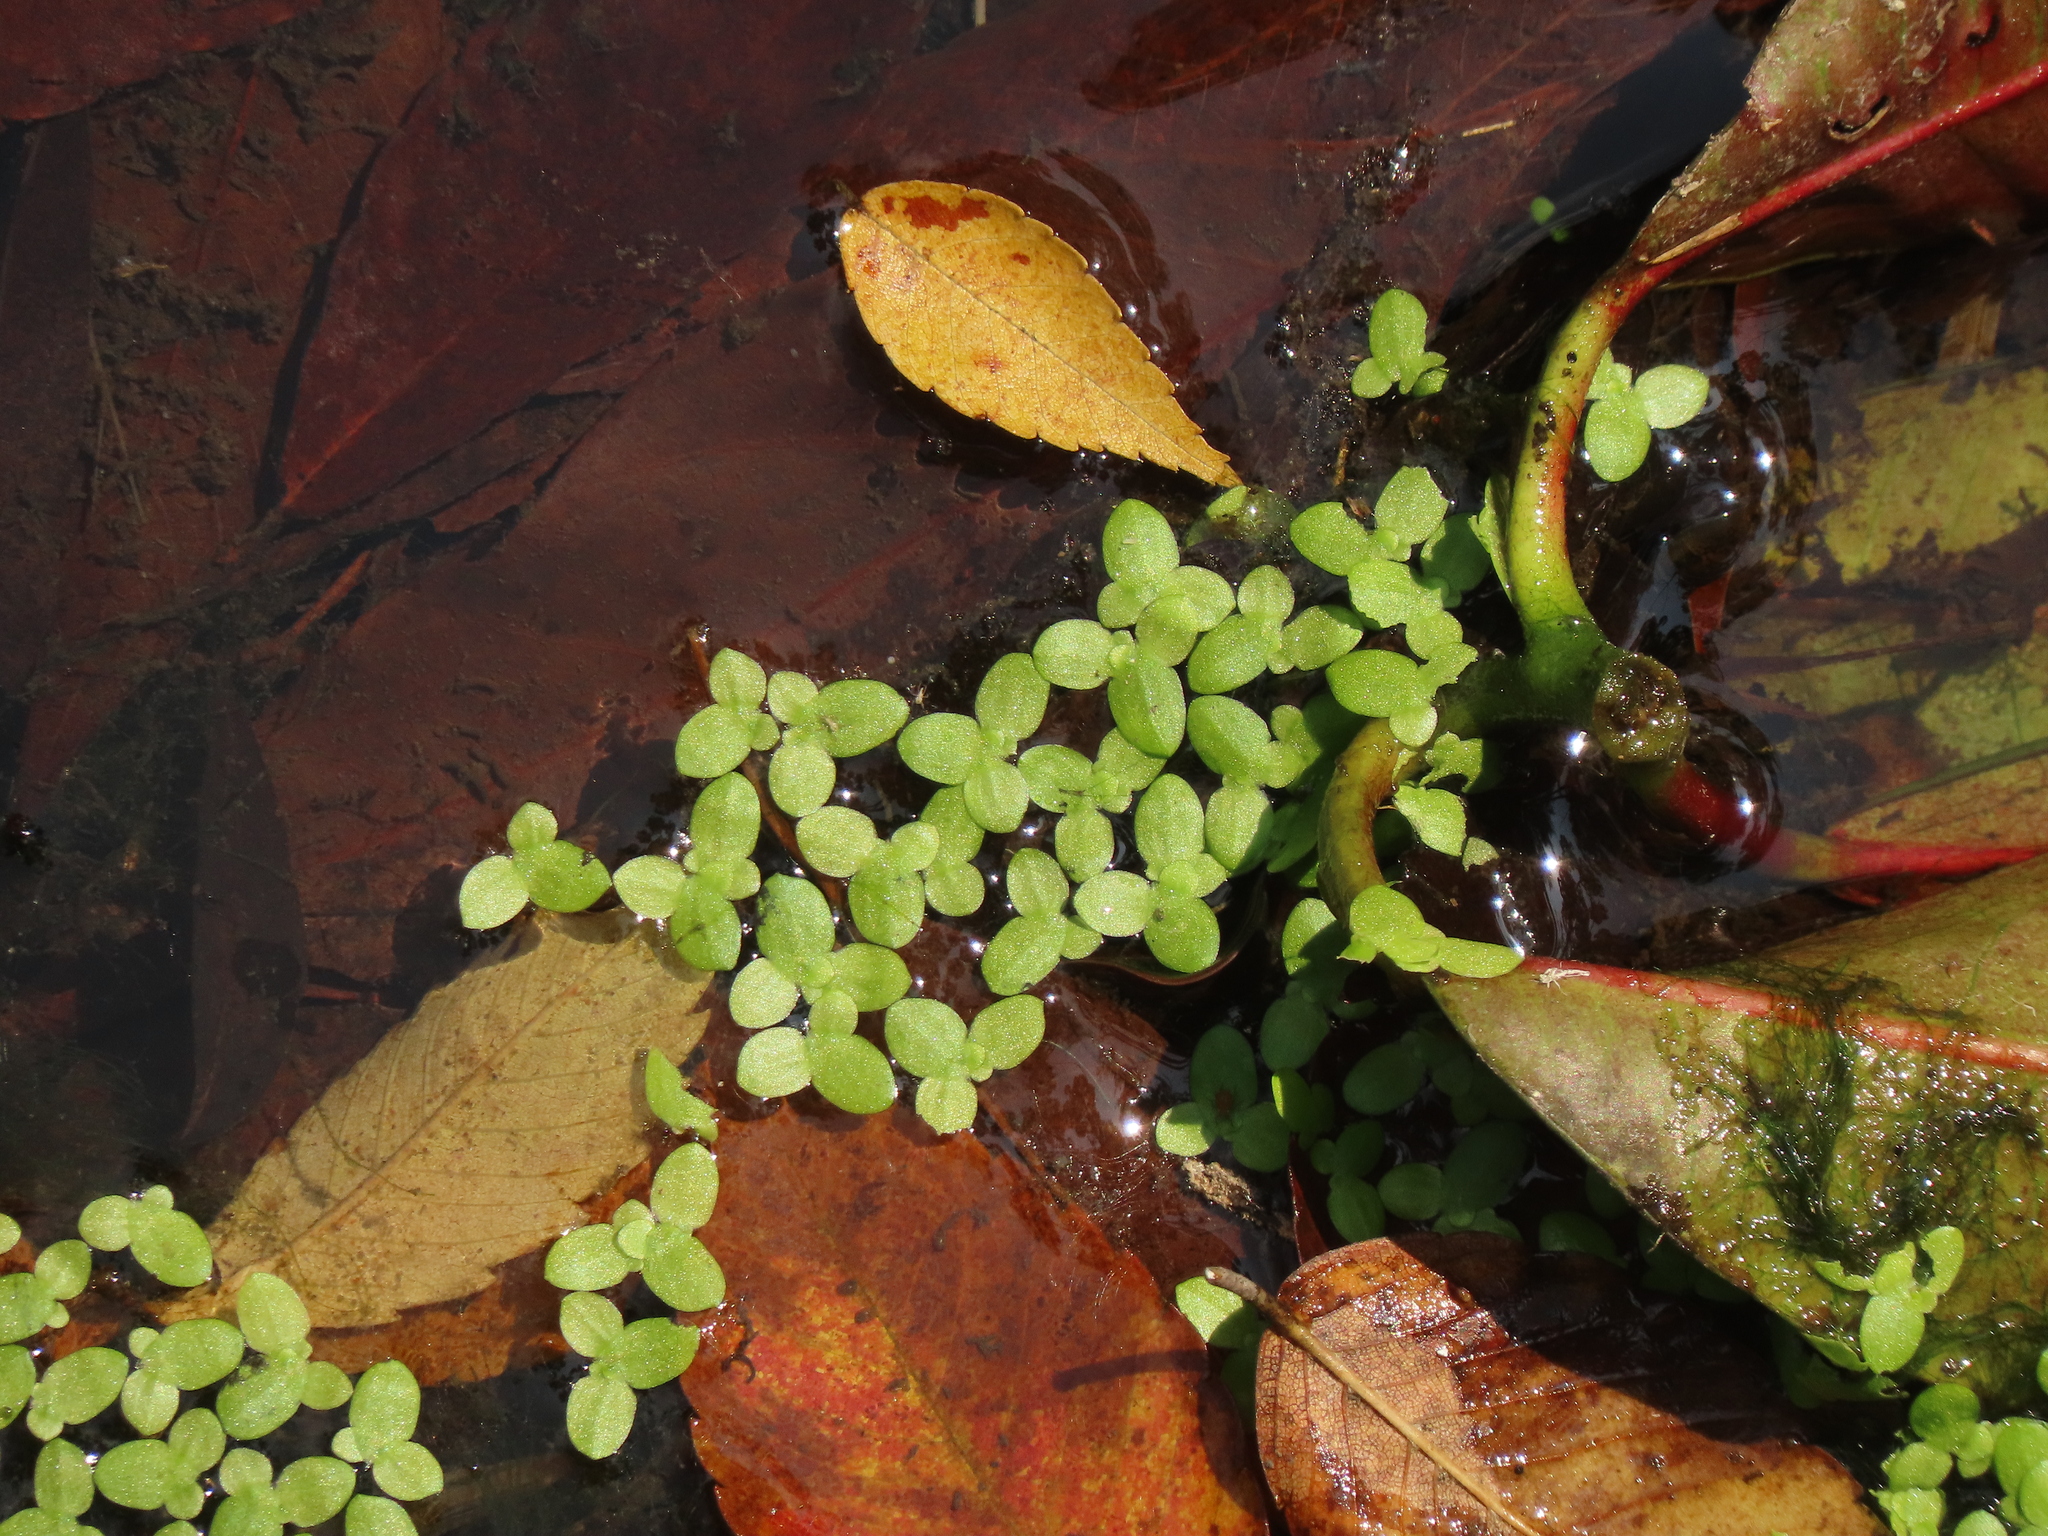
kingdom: Plantae
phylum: Tracheophyta
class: Liliopsida
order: Alismatales
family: Araceae
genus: Lemna
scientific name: Lemna aequinoctialis
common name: Duckweed
